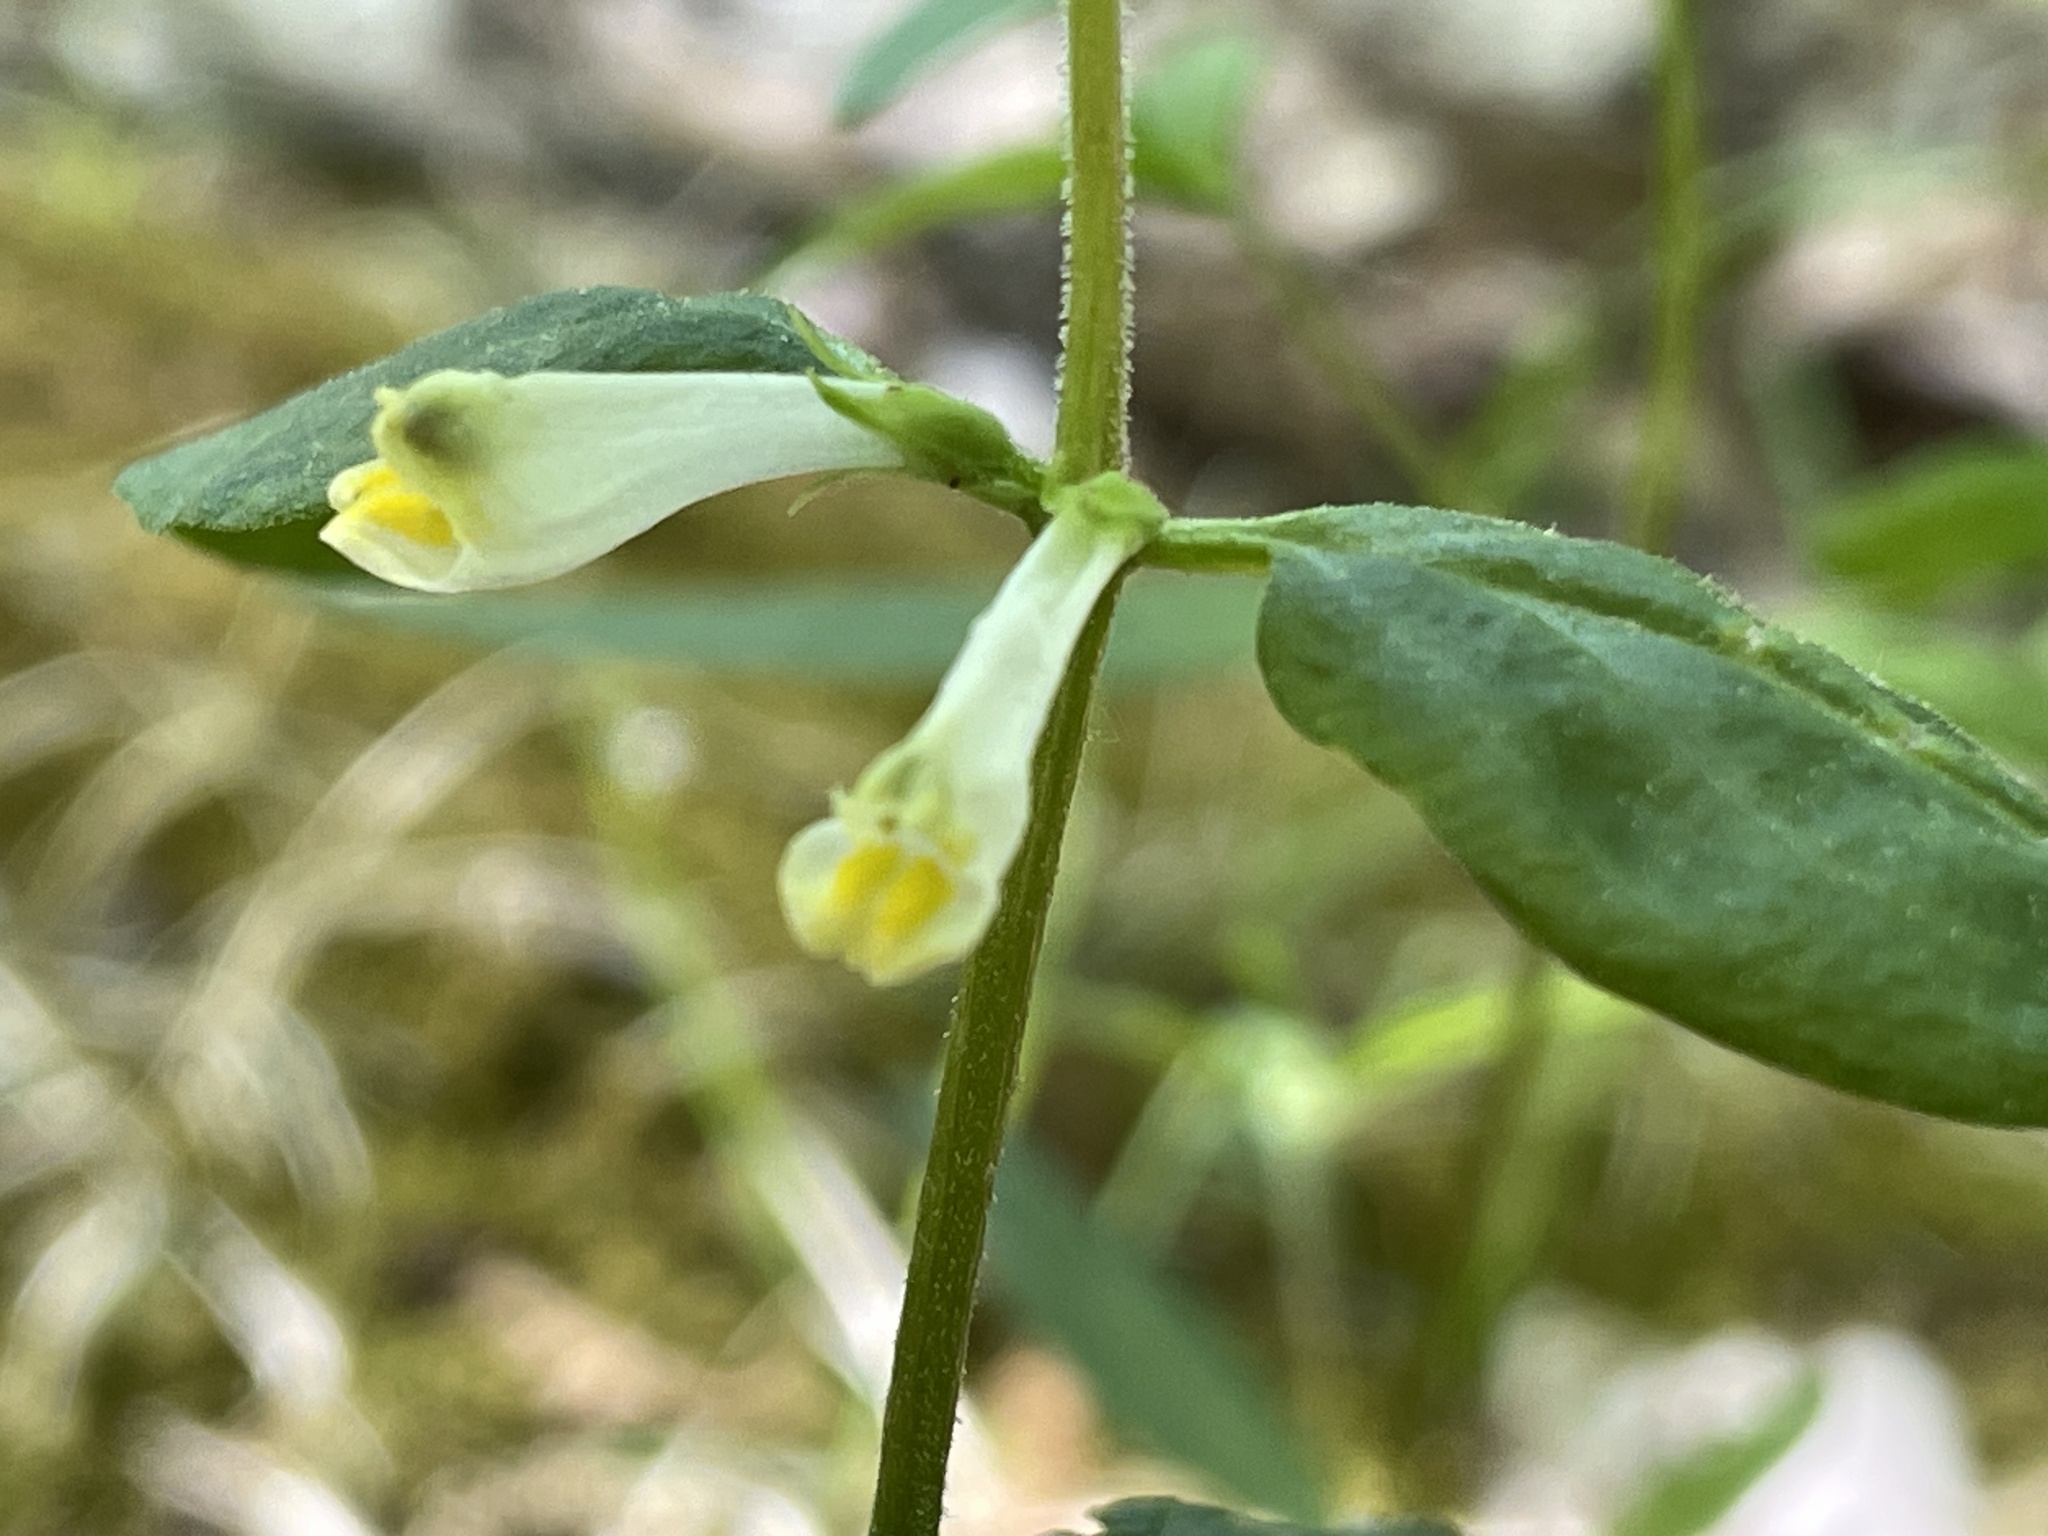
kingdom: Plantae
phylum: Tracheophyta
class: Magnoliopsida
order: Lamiales
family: Orobanchaceae
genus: Melampyrum
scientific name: Melampyrum lineare
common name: American cow-wheat
